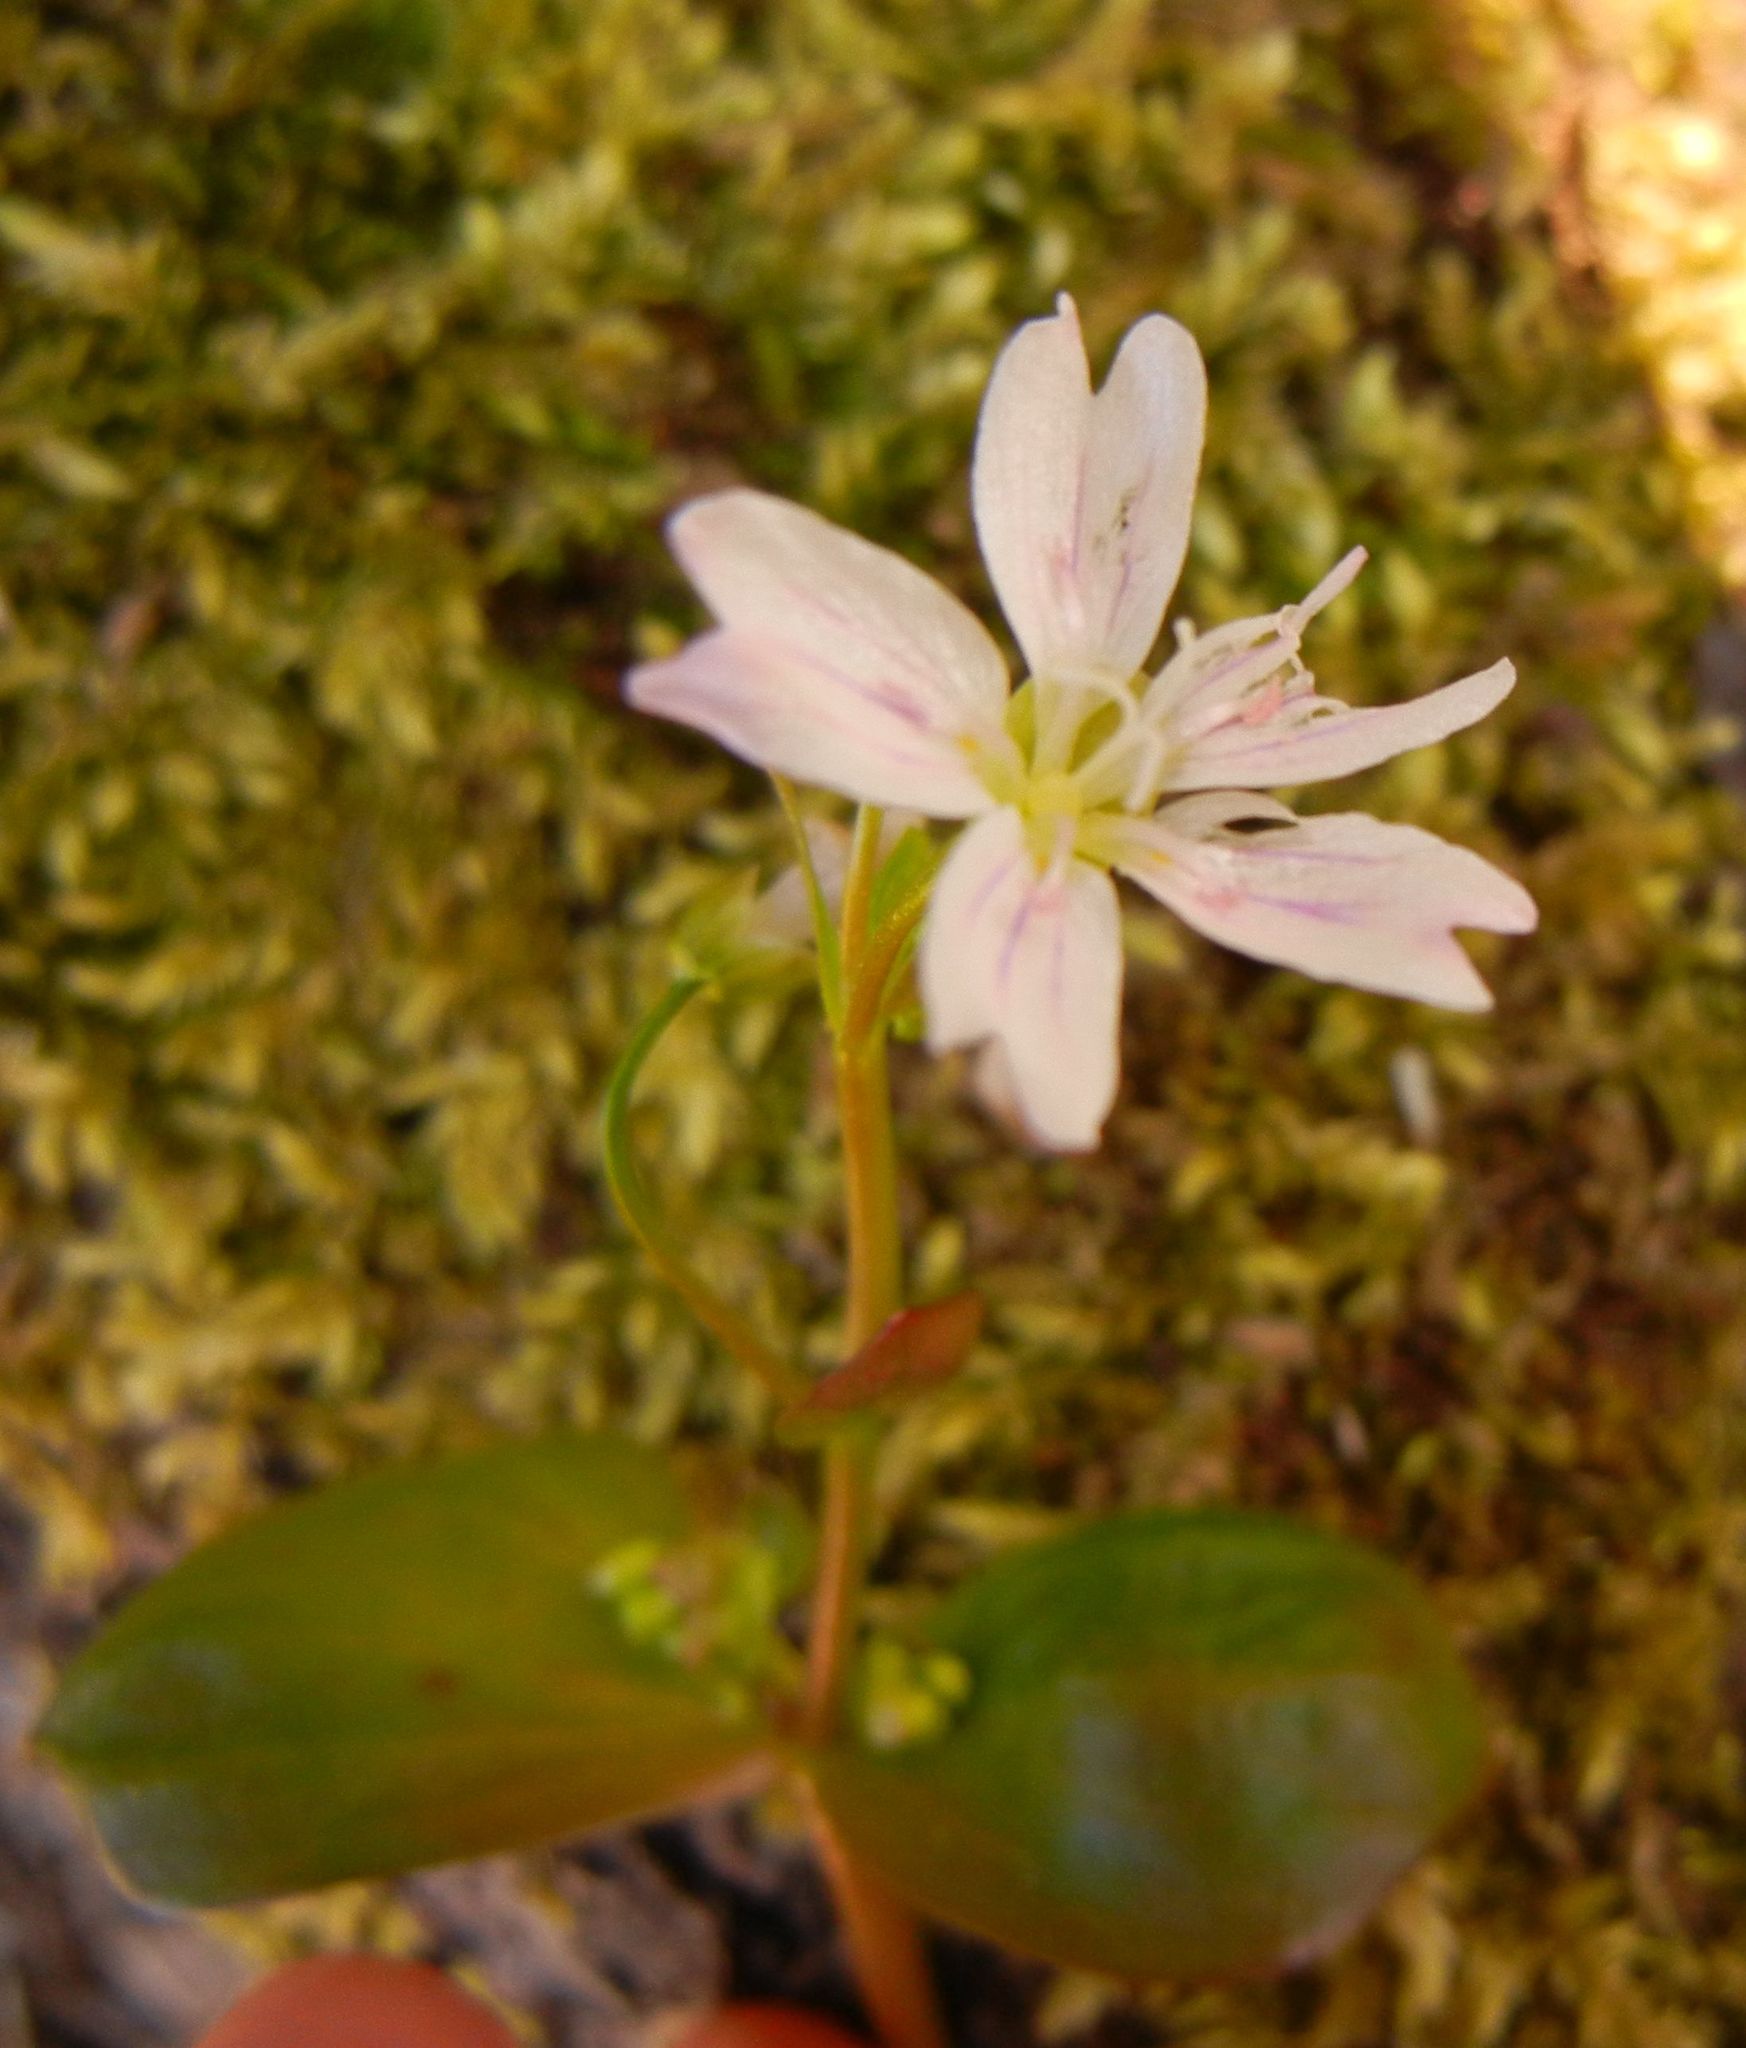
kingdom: Plantae
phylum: Tracheophyta
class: Magnoliopsida
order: Caryophyllales
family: Montiaceae
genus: Claytonia
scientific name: Claytonia sibirica
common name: Pink purslane
